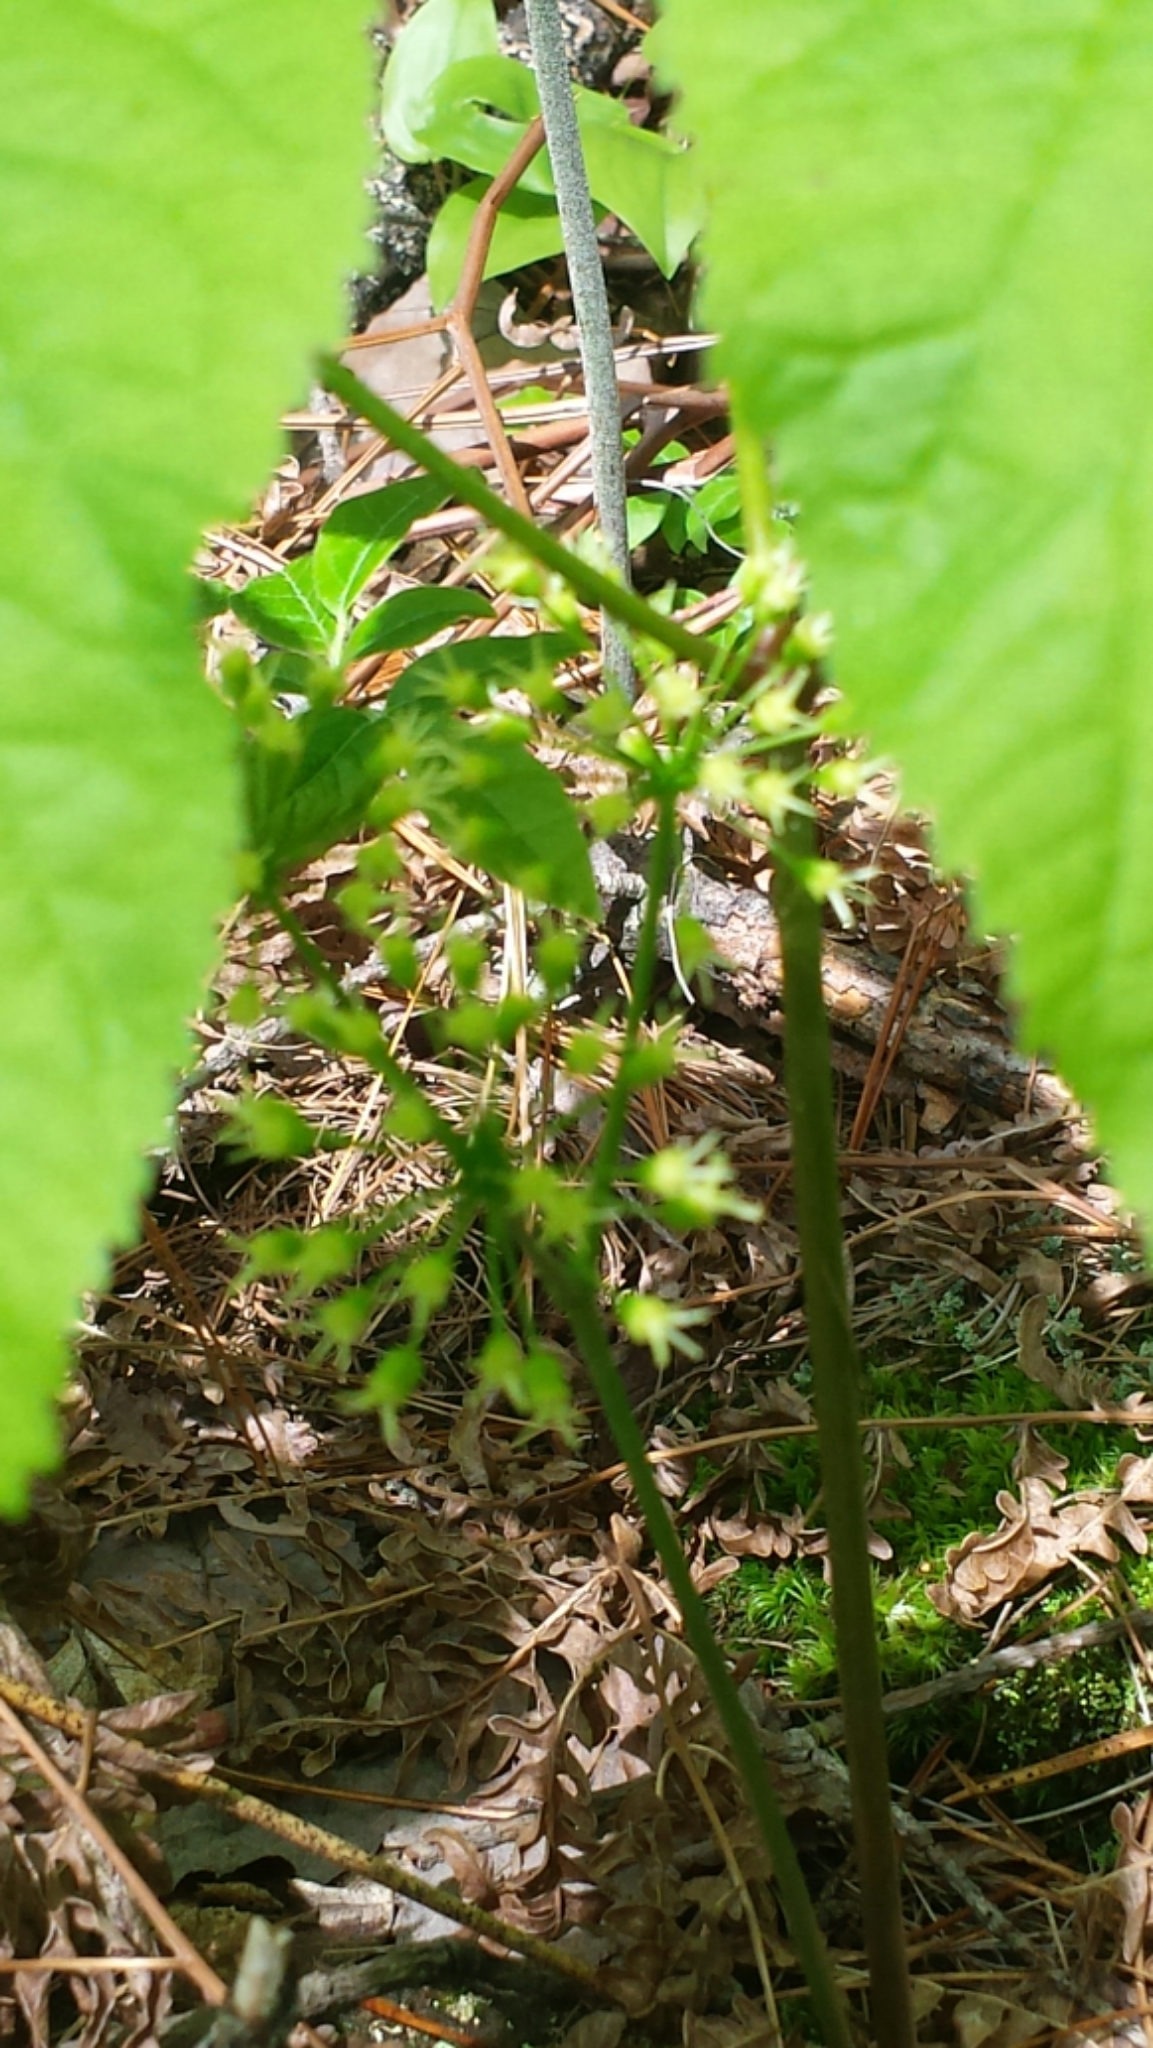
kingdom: Plantae
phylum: Tracheophyta
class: Magnoliopsida
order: Apiales
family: Araliaceae
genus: Aralia
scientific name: Aralia nudicaulis
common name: Wild sarsaparilla
